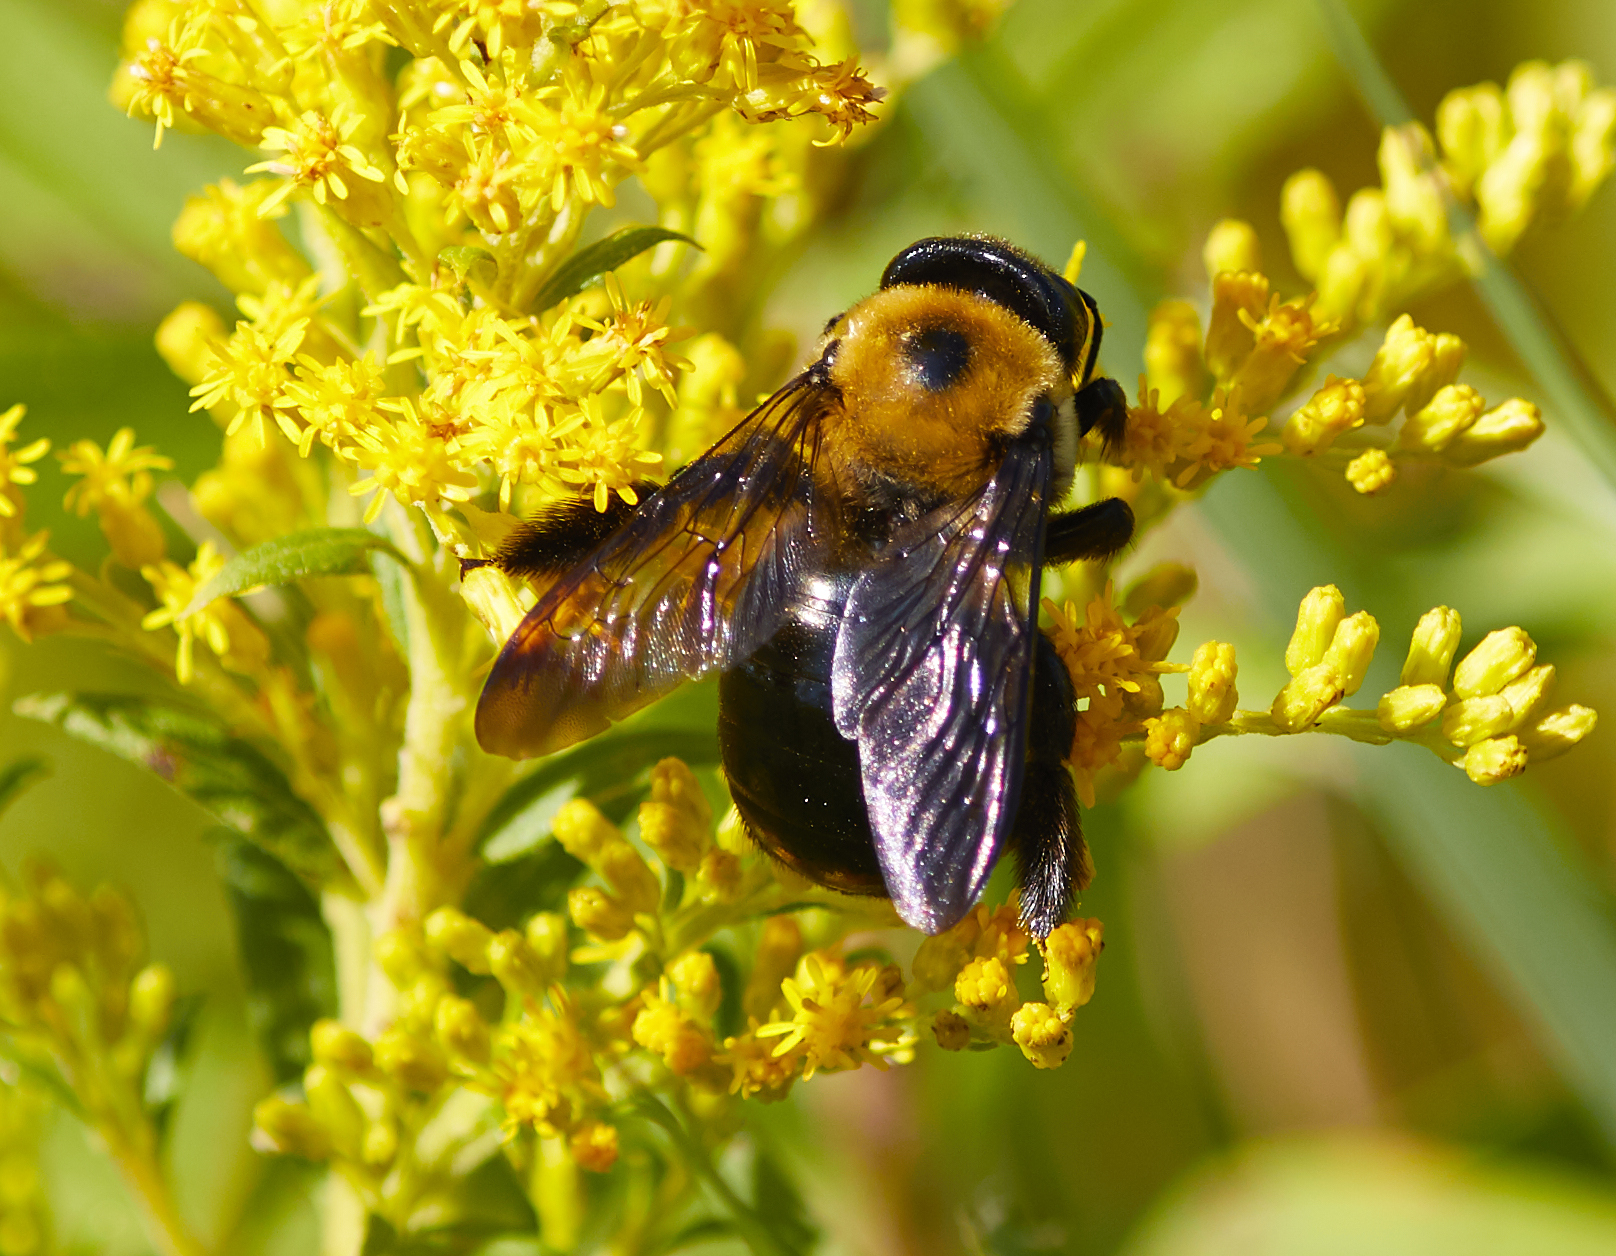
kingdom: Animalia
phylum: Arthropoda
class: Insecta
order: Hymenoptera
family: Apidae
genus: Xylocopa
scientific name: Xylocopa virginica
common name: Carpenter bee
